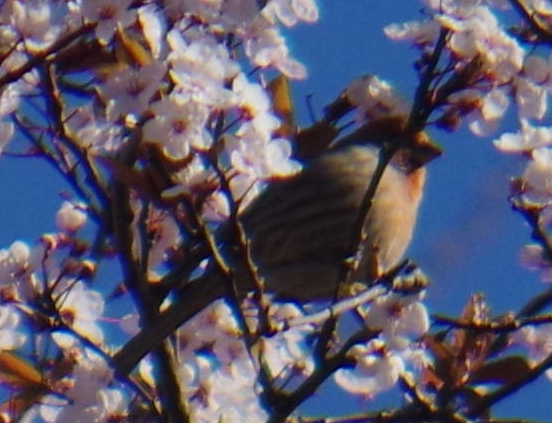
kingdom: Animalia
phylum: Chordata
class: Aves
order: Passeriformes
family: Fringillidae
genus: Haemorhous
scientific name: Haemorhous mexicanus
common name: House finch
